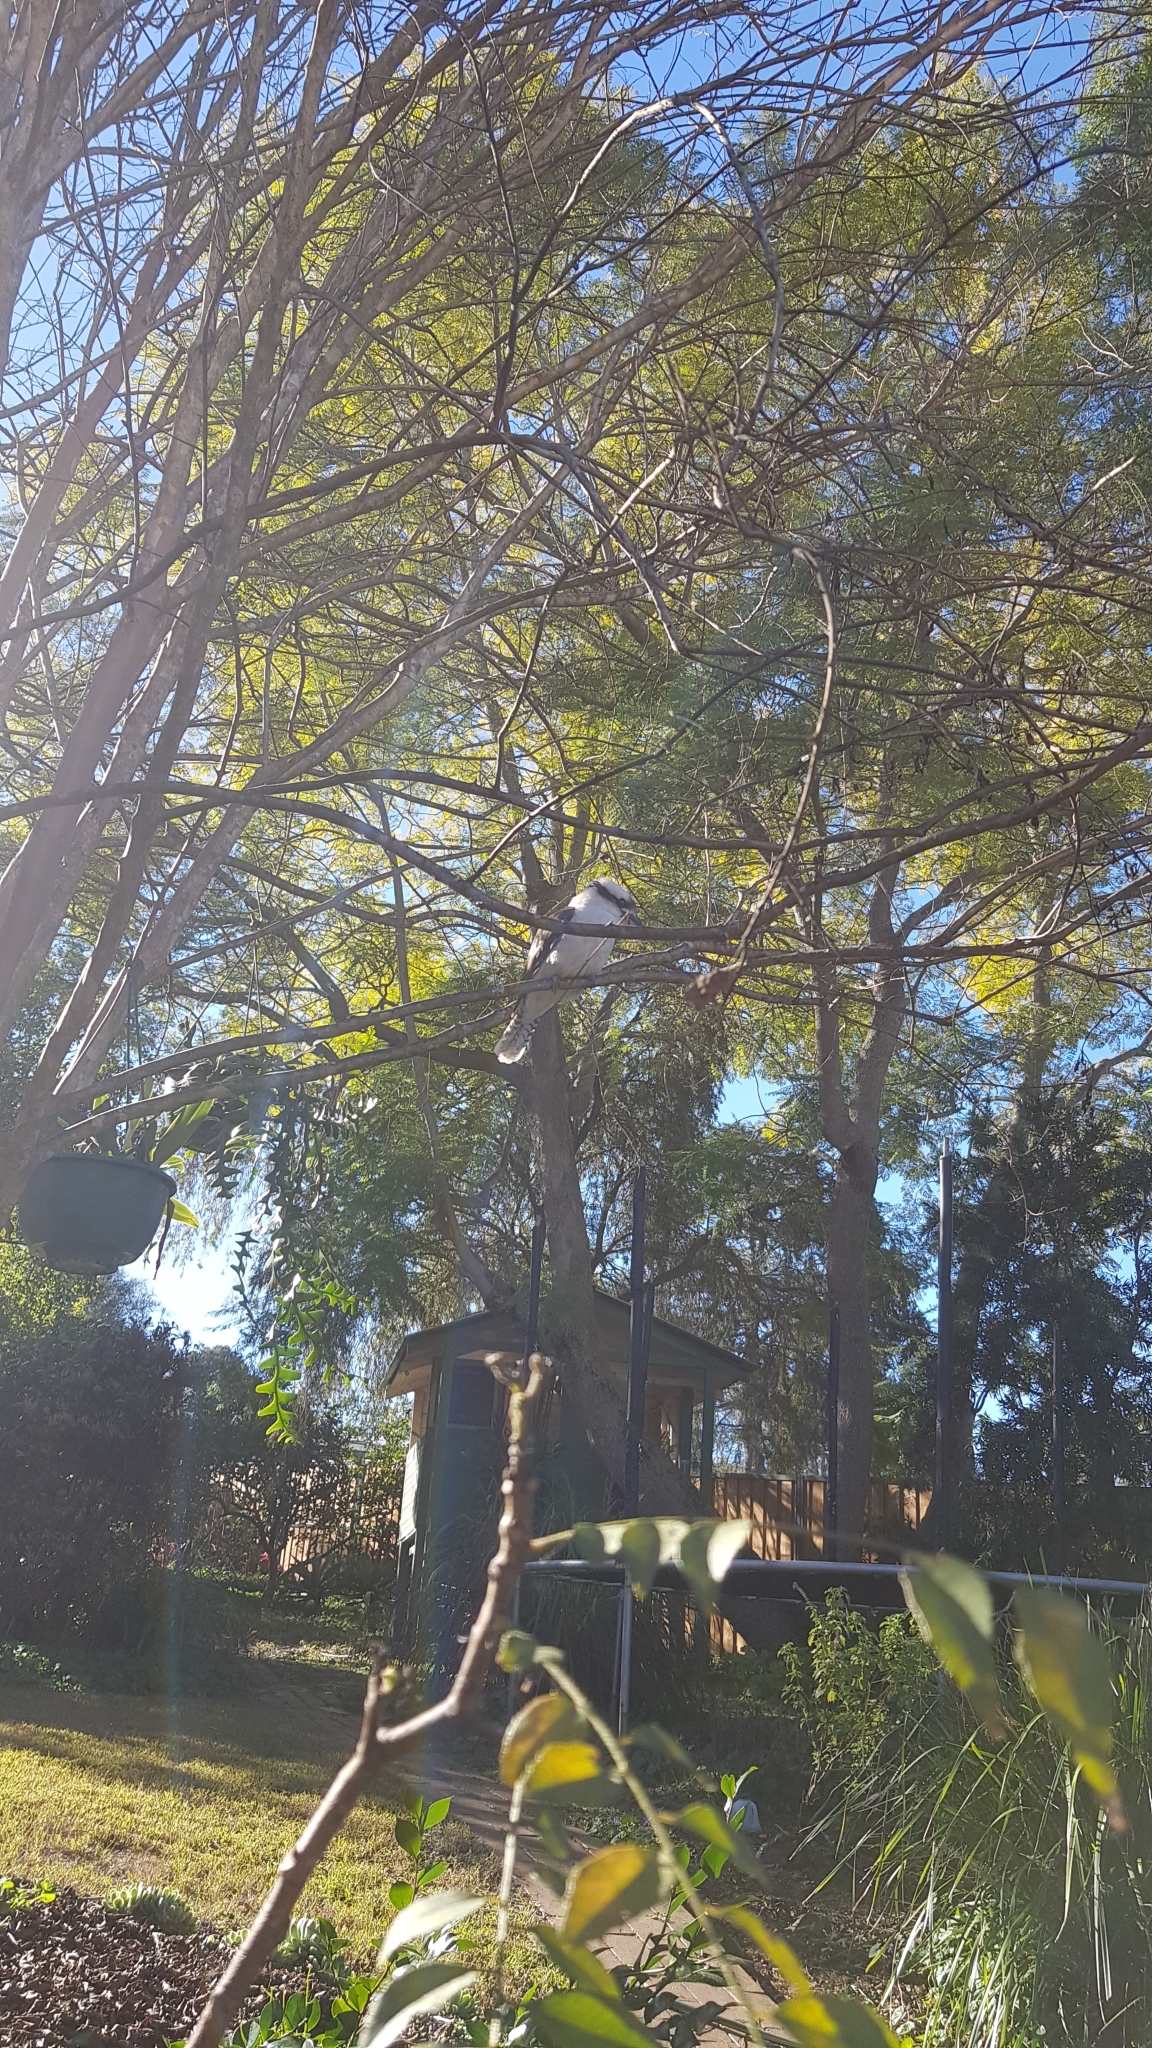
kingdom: Animalia
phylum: Chordata
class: Aves
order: Coraciiformes
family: Alcedinidae
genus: Dacelo
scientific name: Dacelo novaeguineae
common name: Laughing kookaburra
